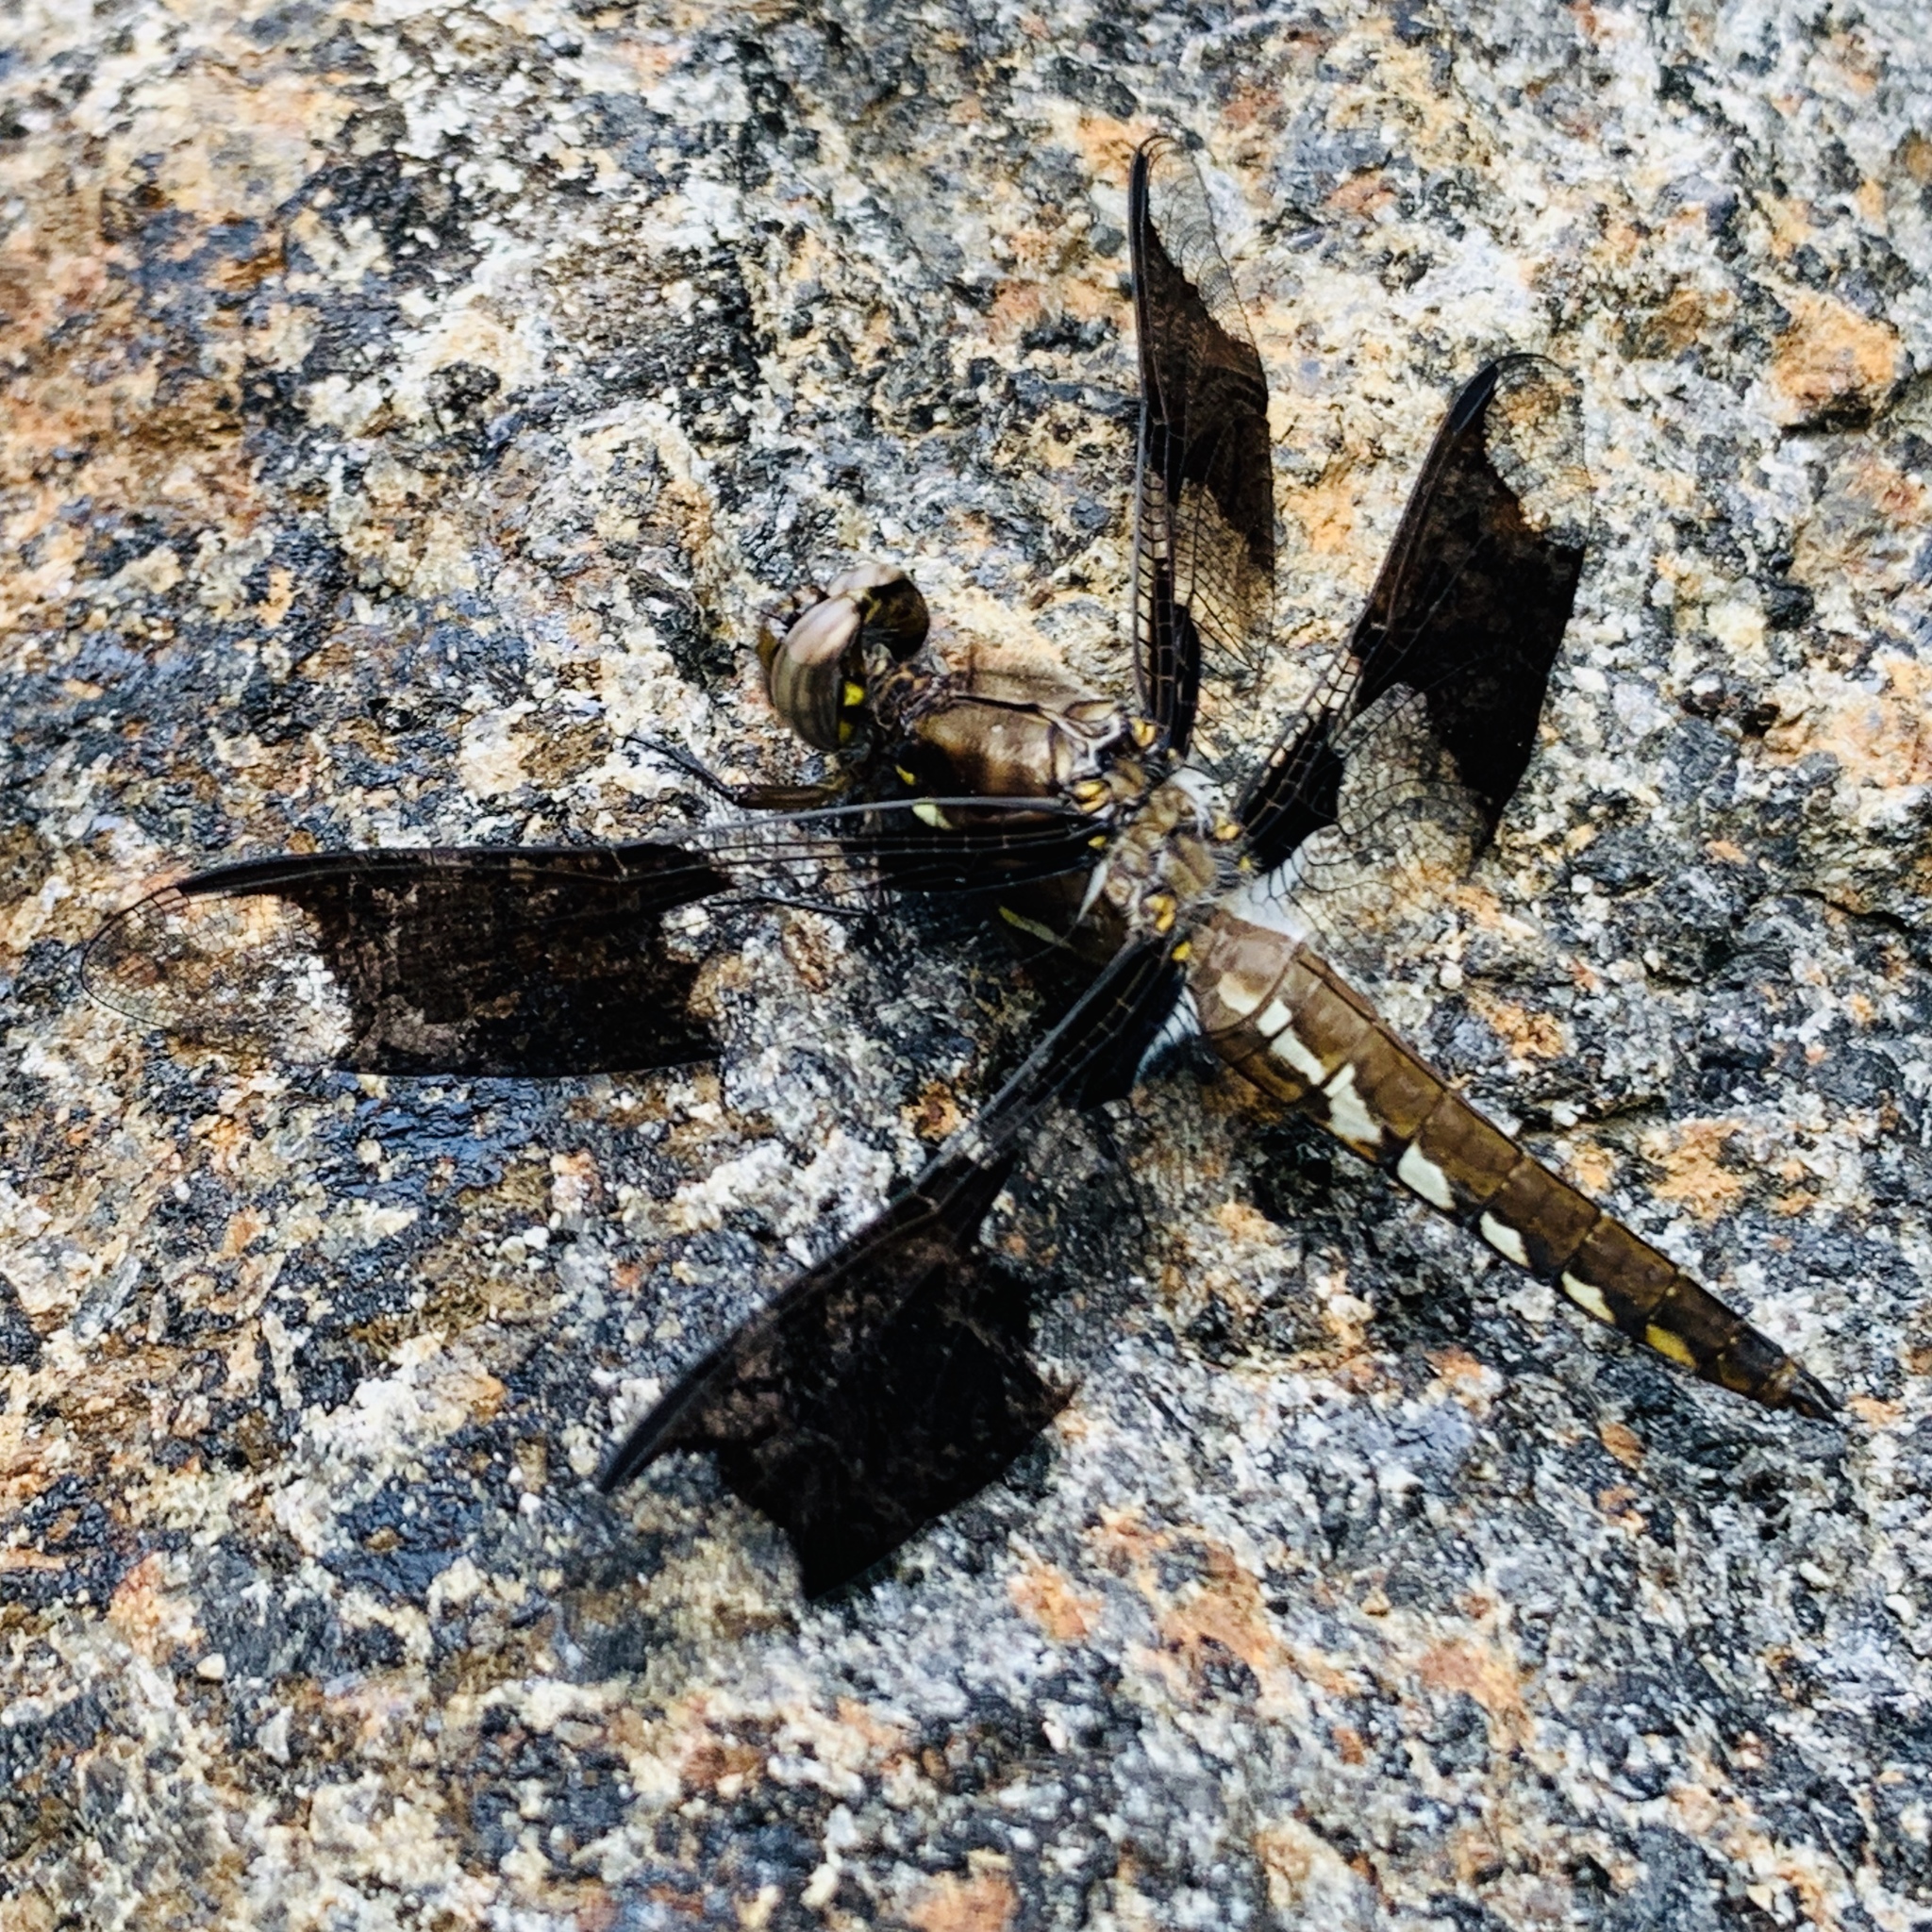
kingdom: Animalia
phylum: Arthropoda
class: Insecta
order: Odonata
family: Libellulidae
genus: Plathemis
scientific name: Plathemis lydia
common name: Common whitetail
